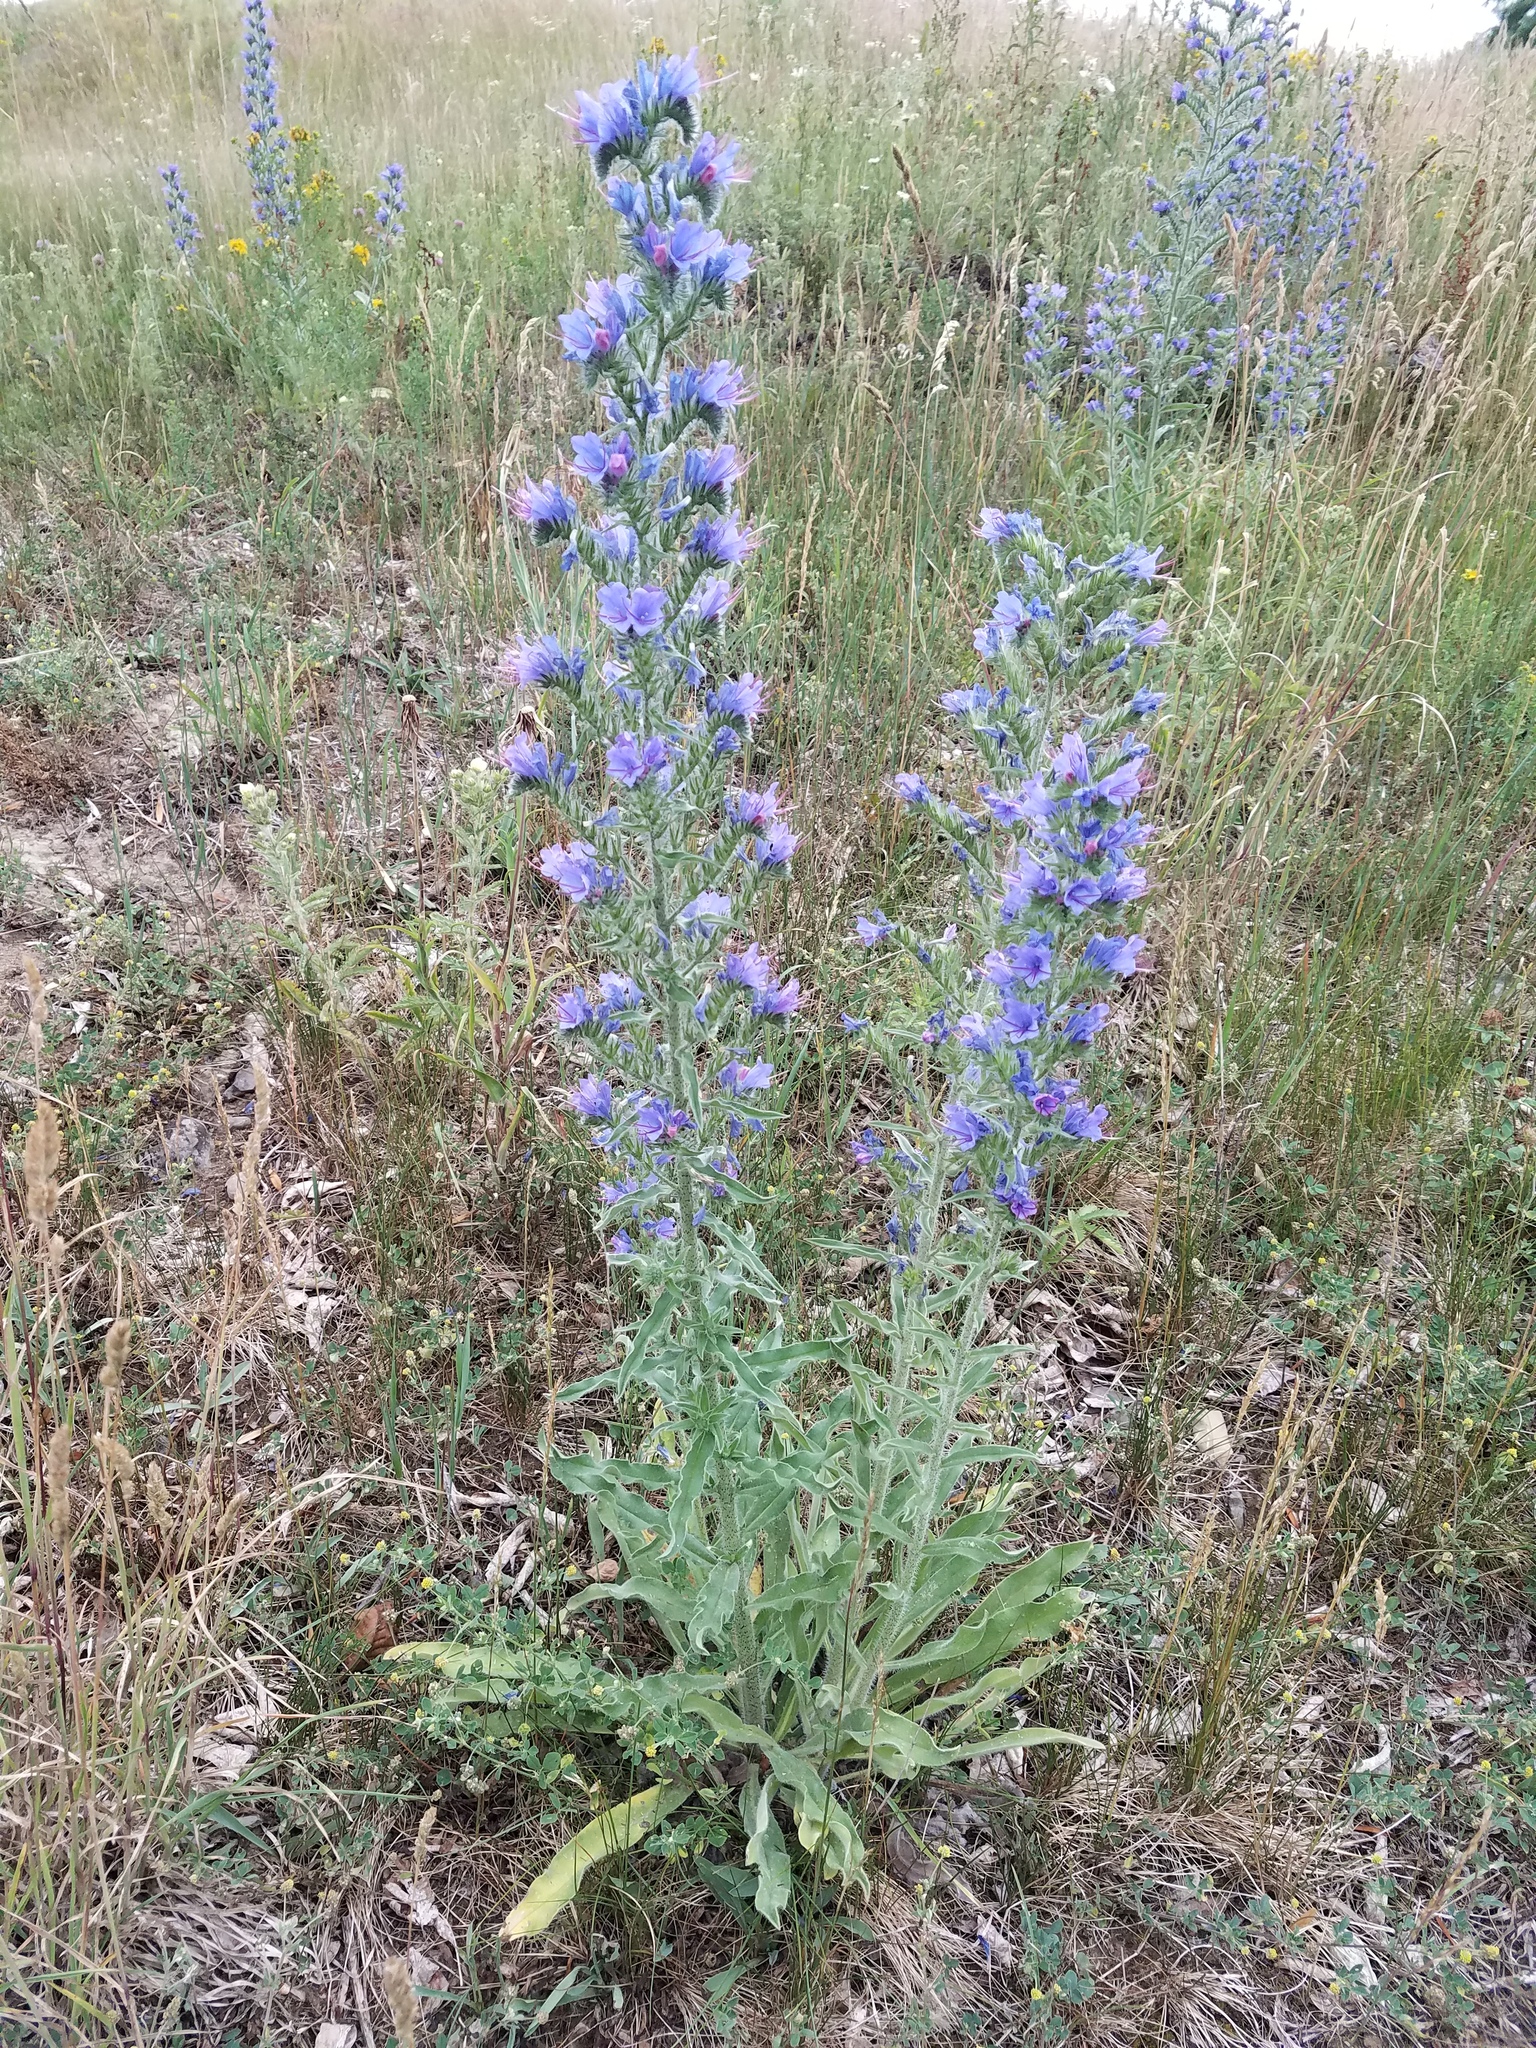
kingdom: Plantae
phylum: Tracheophyta
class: Magnoliopsida
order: Boraginales
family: Boraginaceae
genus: Echium
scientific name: Echium vulgare
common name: Common viper's bugloss
